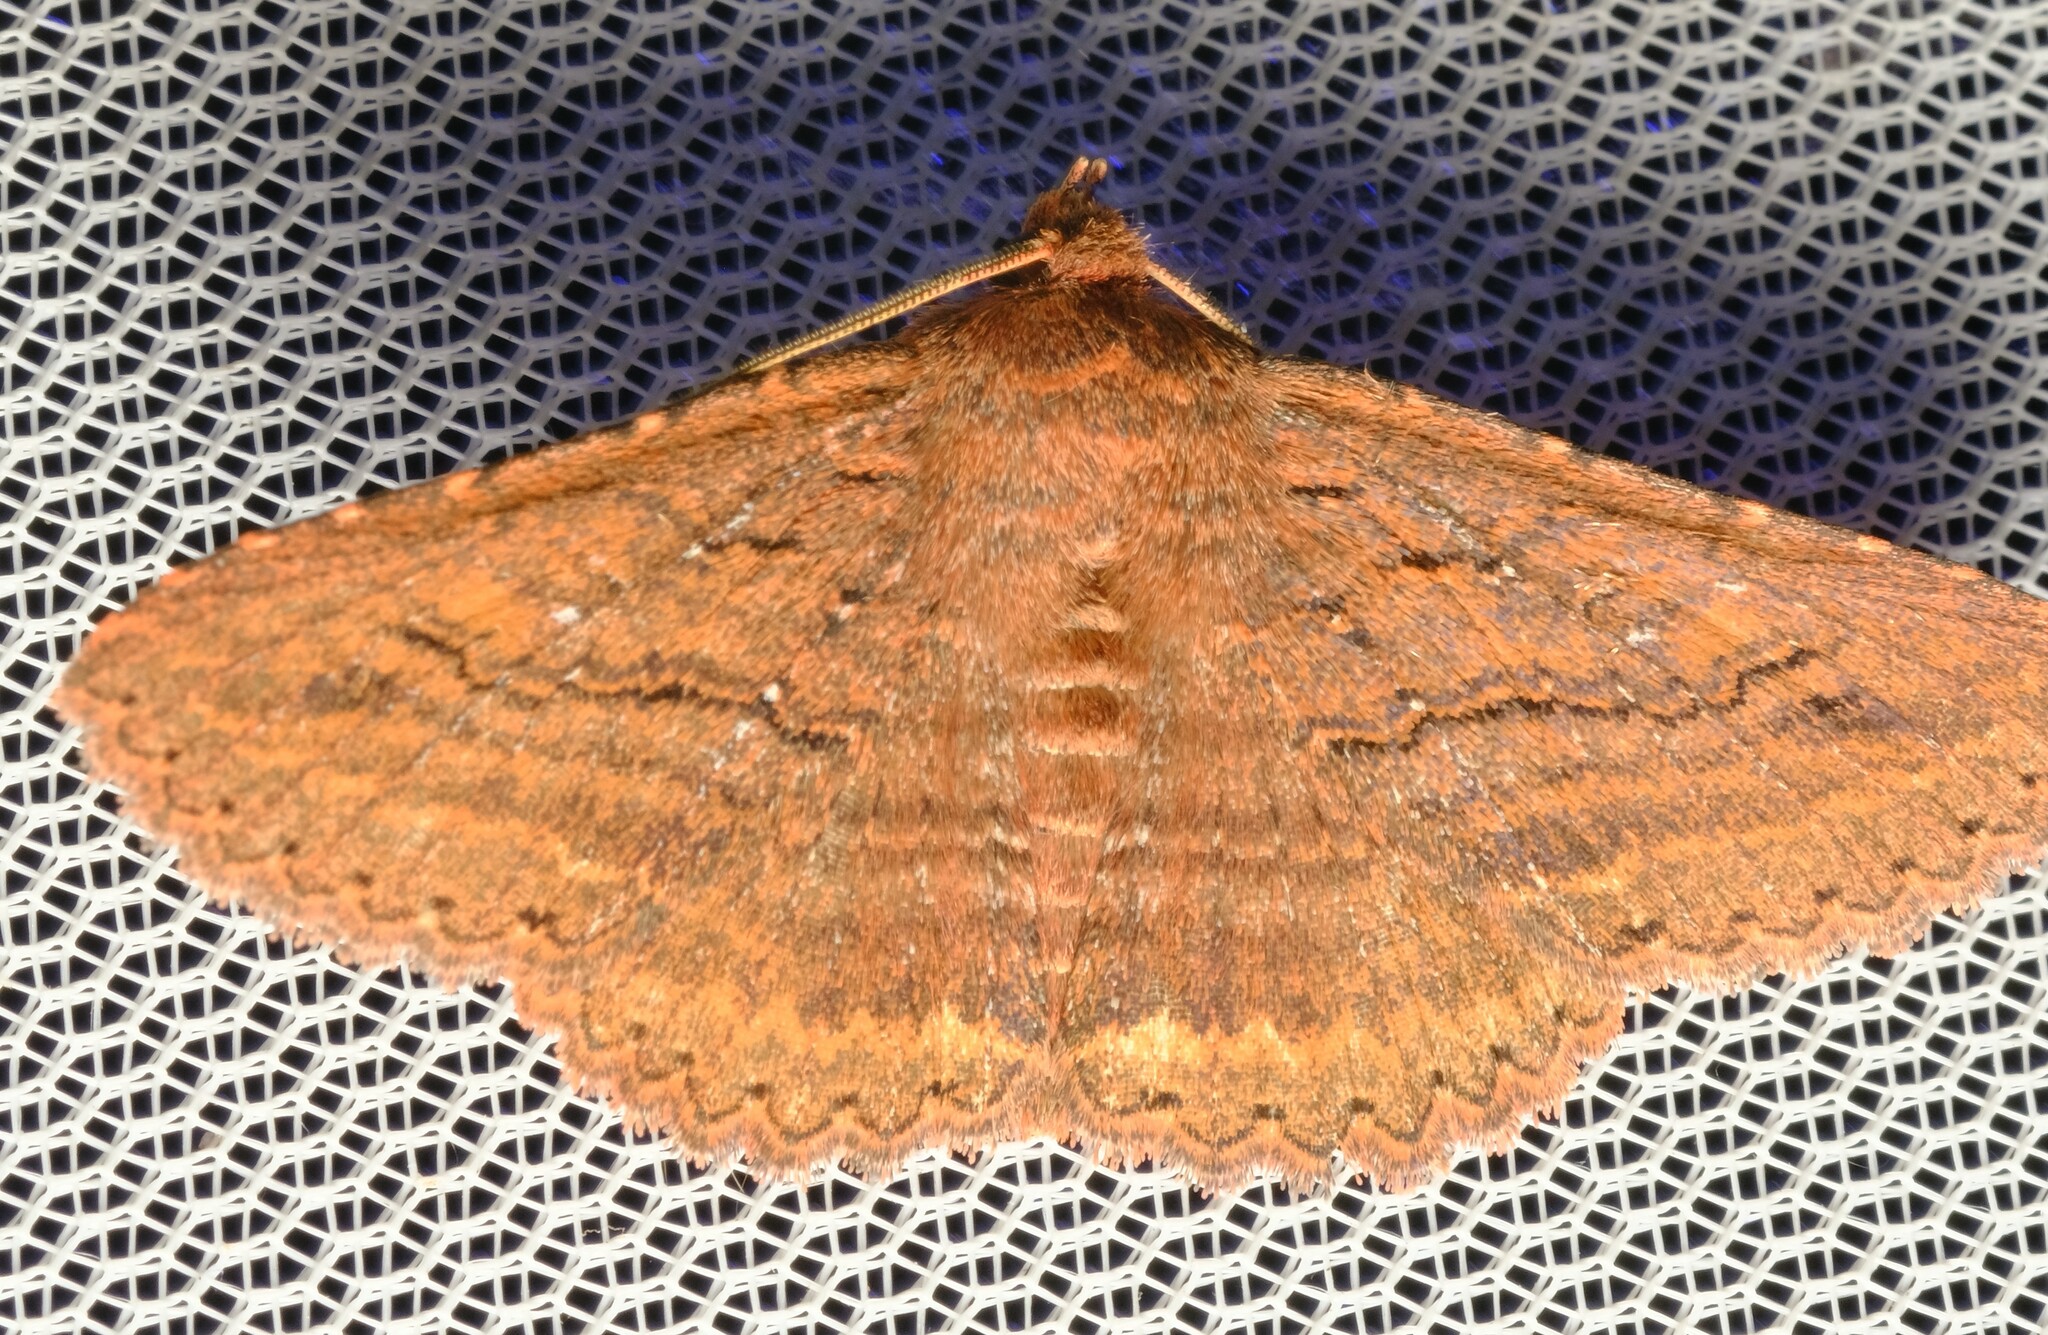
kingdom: Animalia
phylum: Arthropoda
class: Insecta
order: Lepidoptera
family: Erebidae
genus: Praxis
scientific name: Praxis porphyretica
